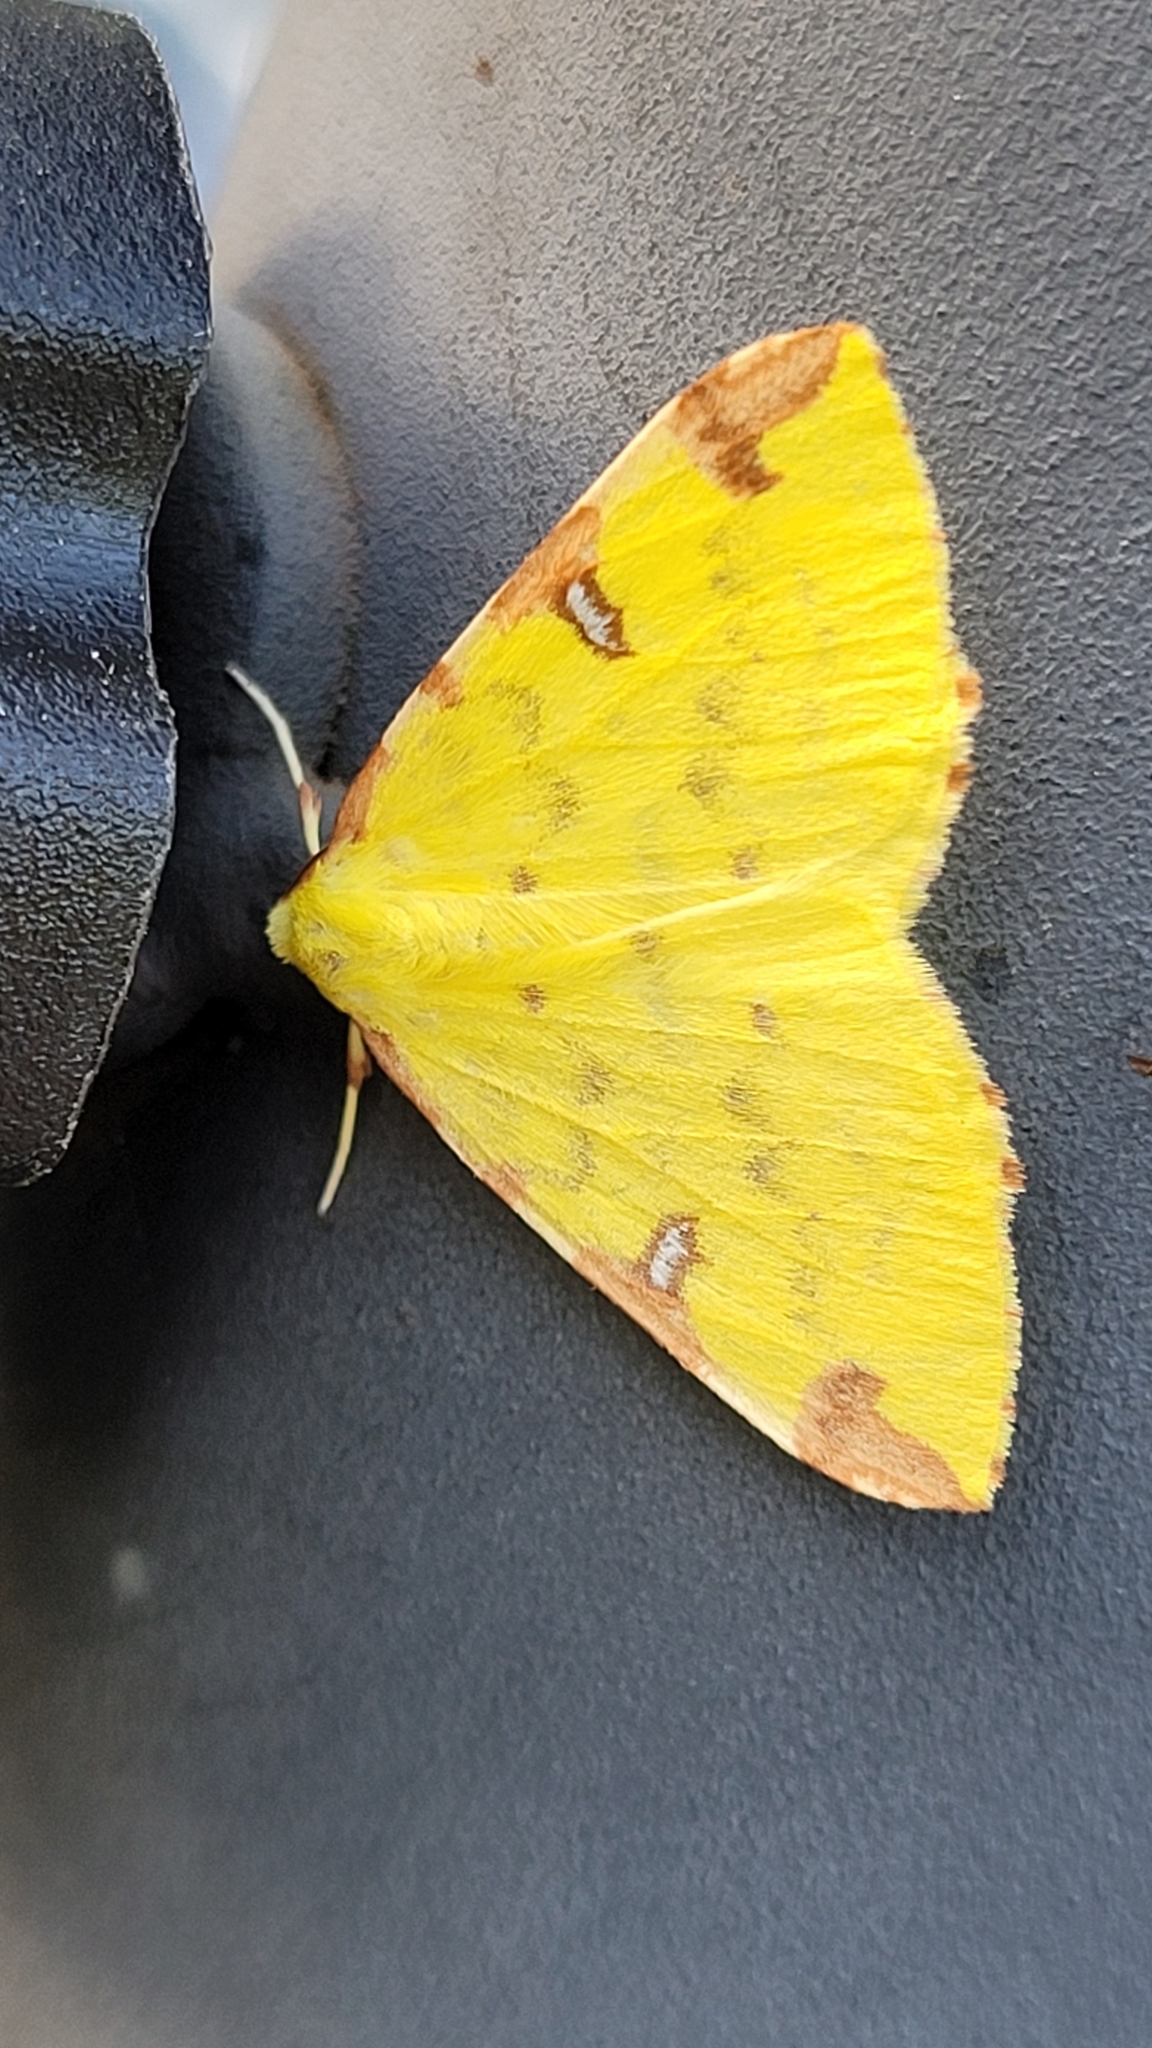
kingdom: Animalia
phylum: Arthropoda
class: Insecta
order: Lepidoptera
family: Geometridae
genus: Opisthograptis
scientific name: Opisthograptis luteolata
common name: Brimstone moth
